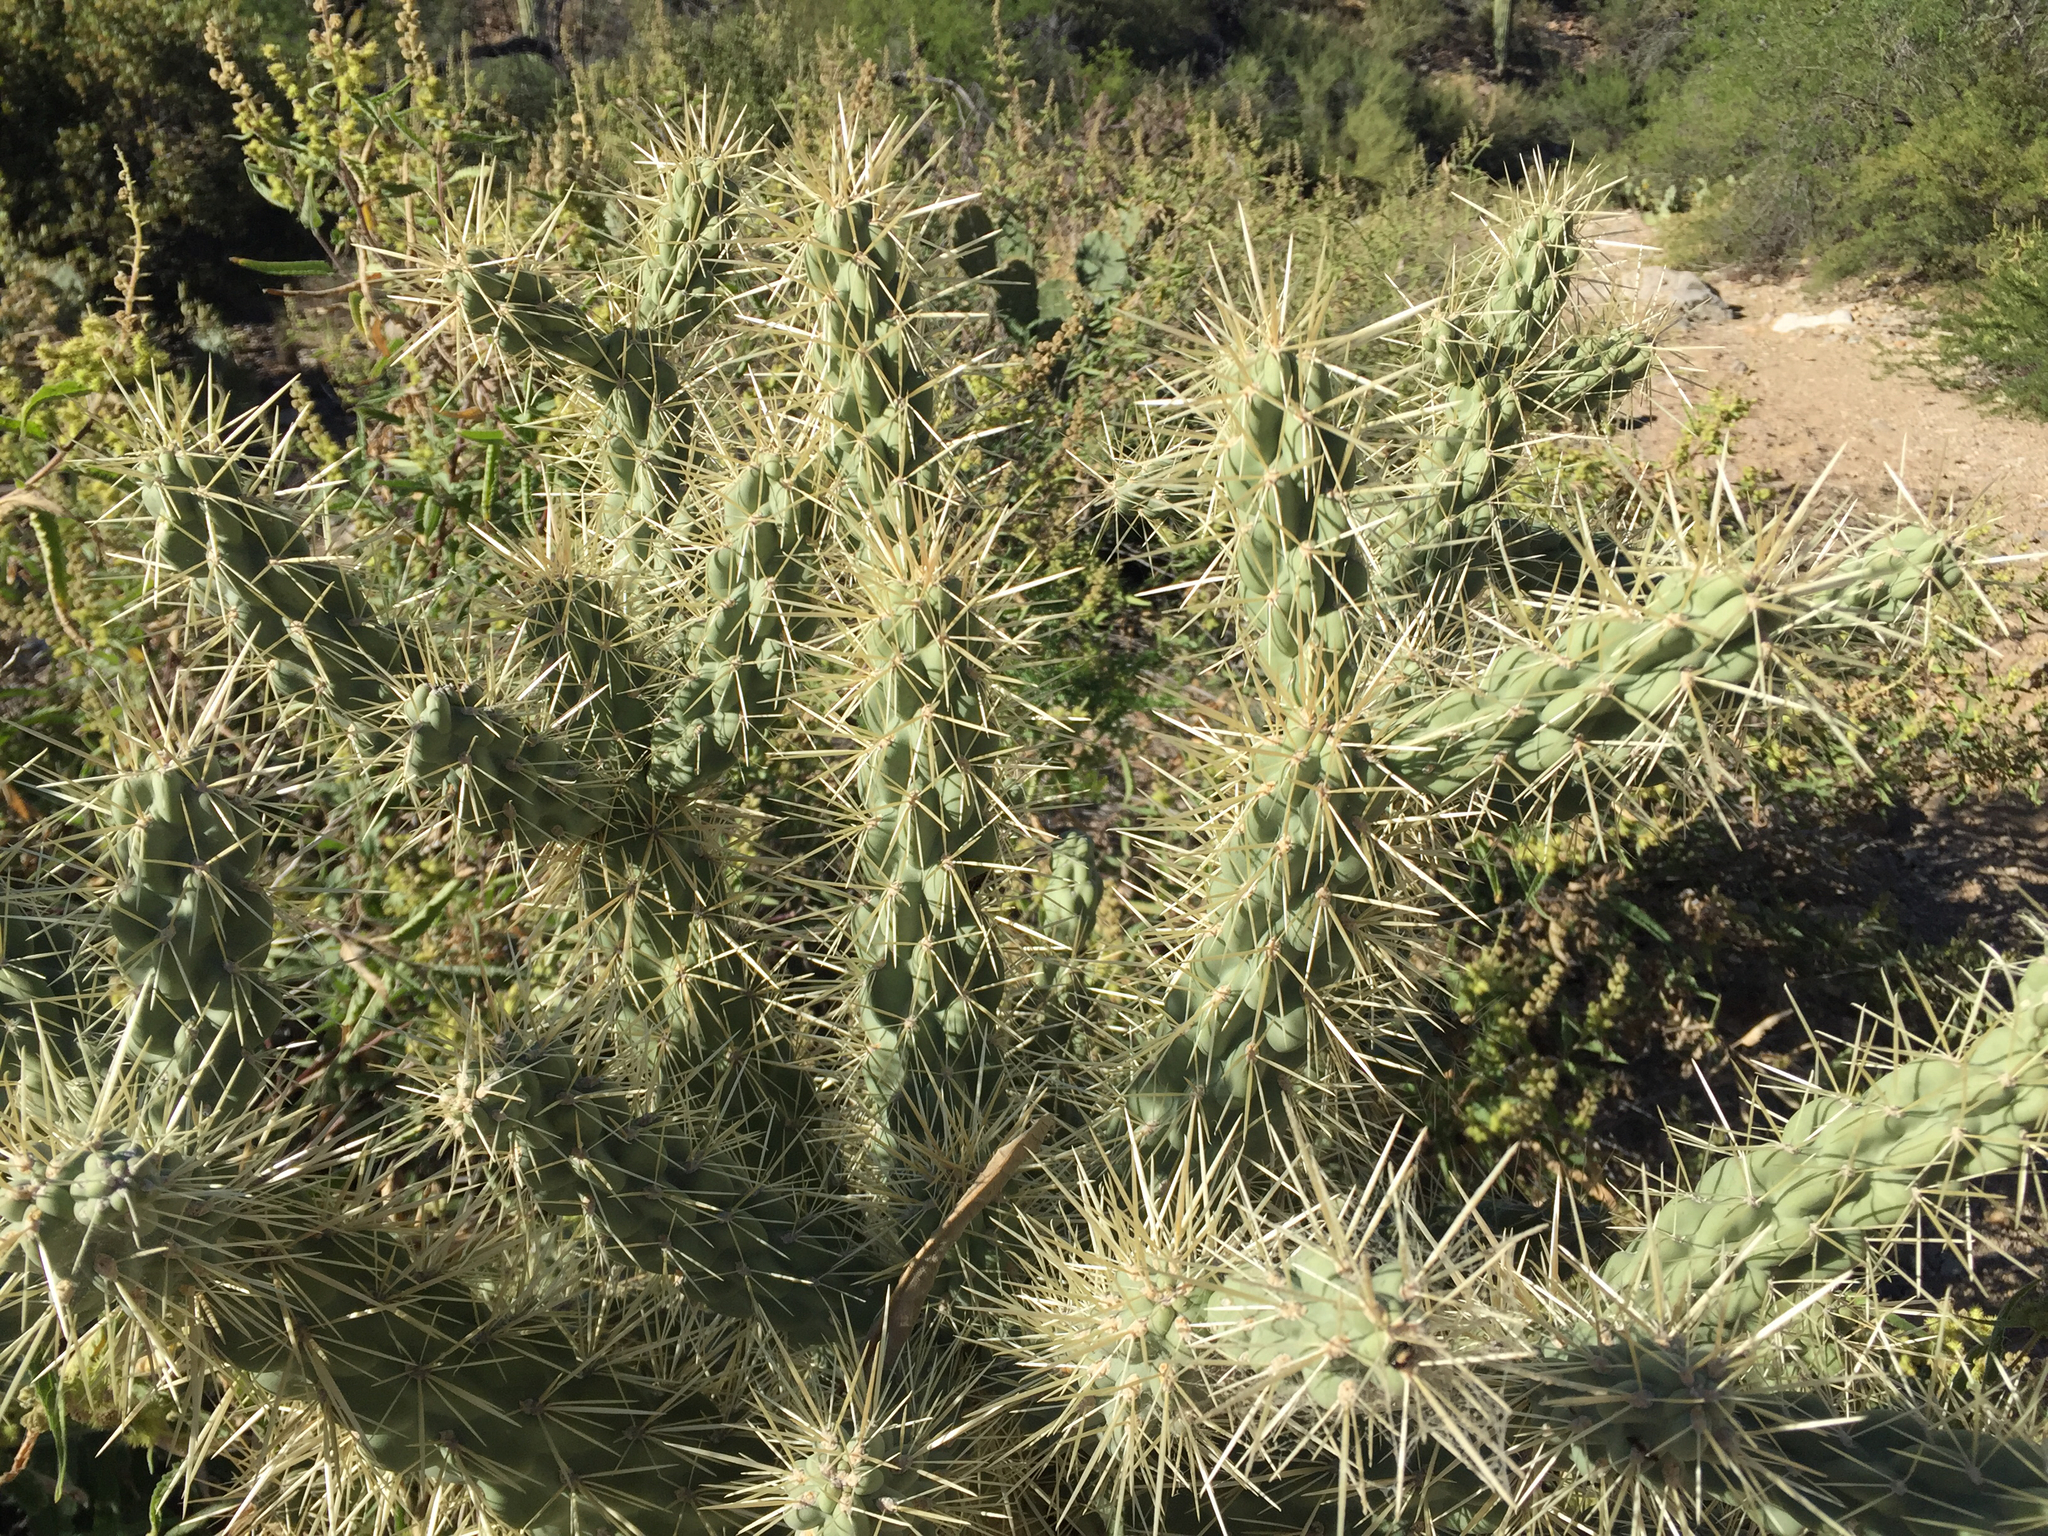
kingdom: Plantae
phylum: Tracheophyta
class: Magnoliopsida
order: Caryophyllales
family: Cactaceae
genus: Cylindropuntia
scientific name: Cylindropuntia fulgida
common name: Jumping cholla
